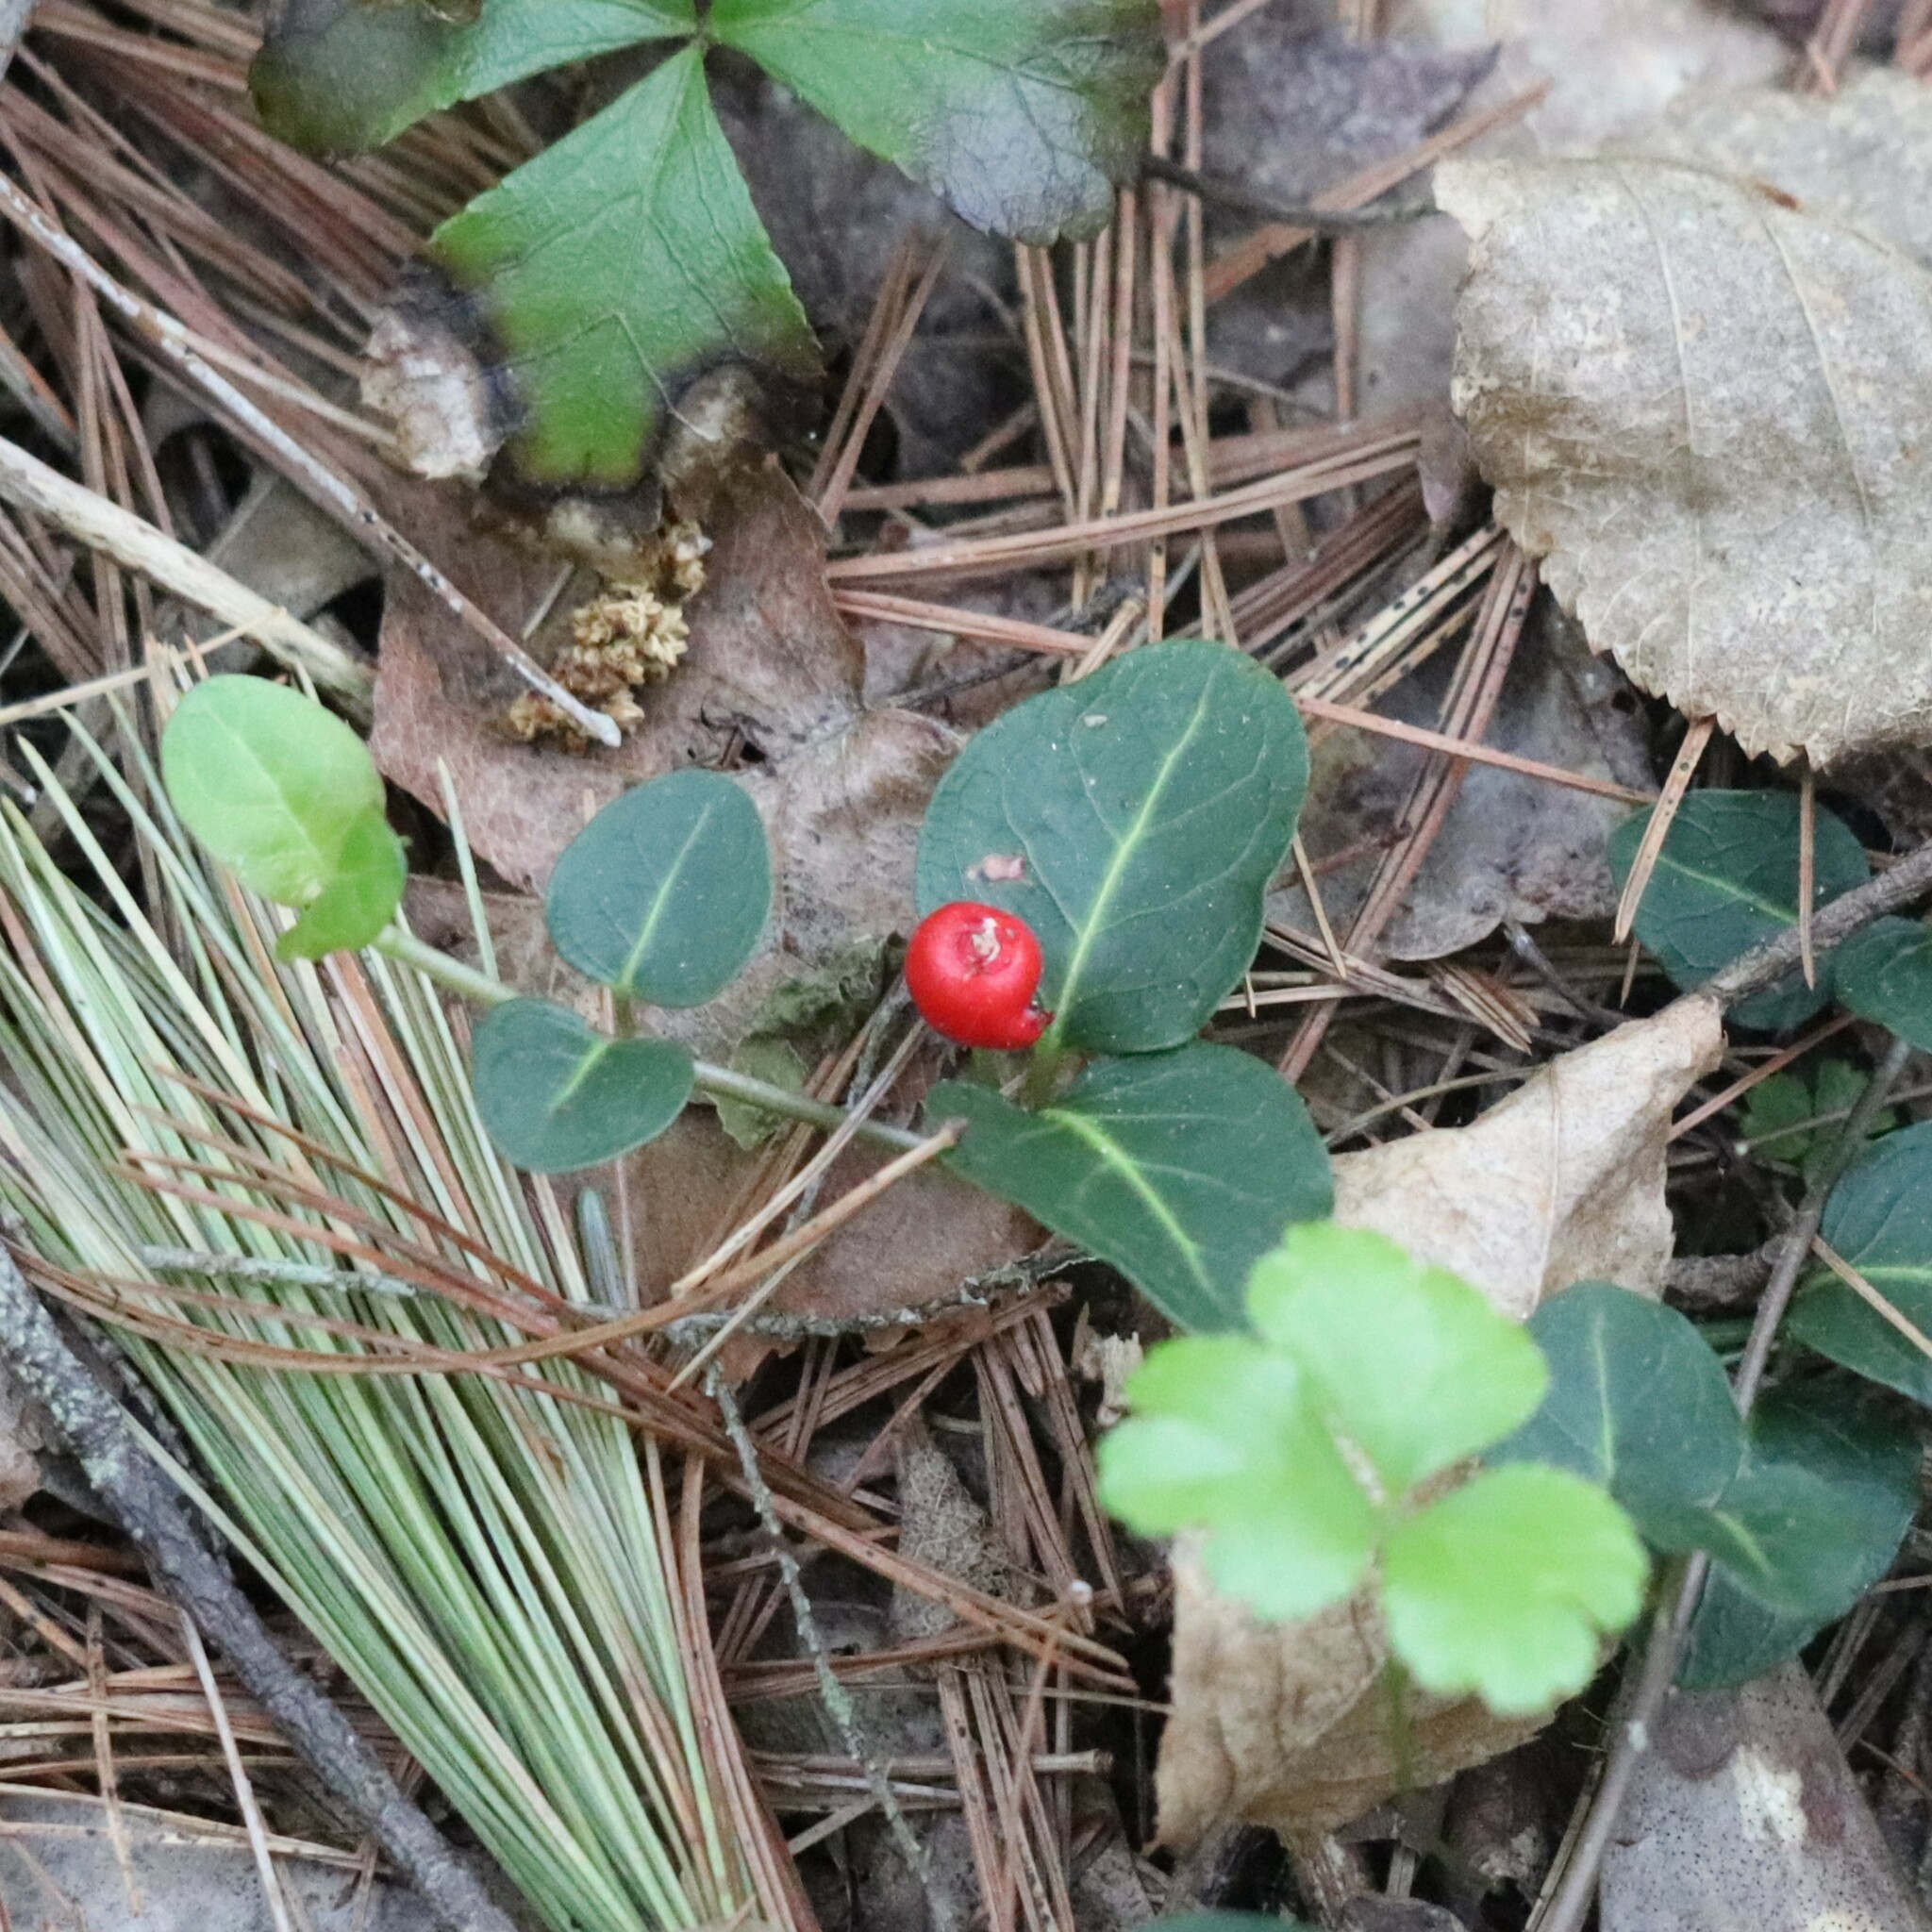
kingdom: Plantae
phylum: Tracheophyta
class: Magnoliopsida
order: Gentianales
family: Rubiaceae
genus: Mitchella
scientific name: Mitchella repens
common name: Partridge-berry
